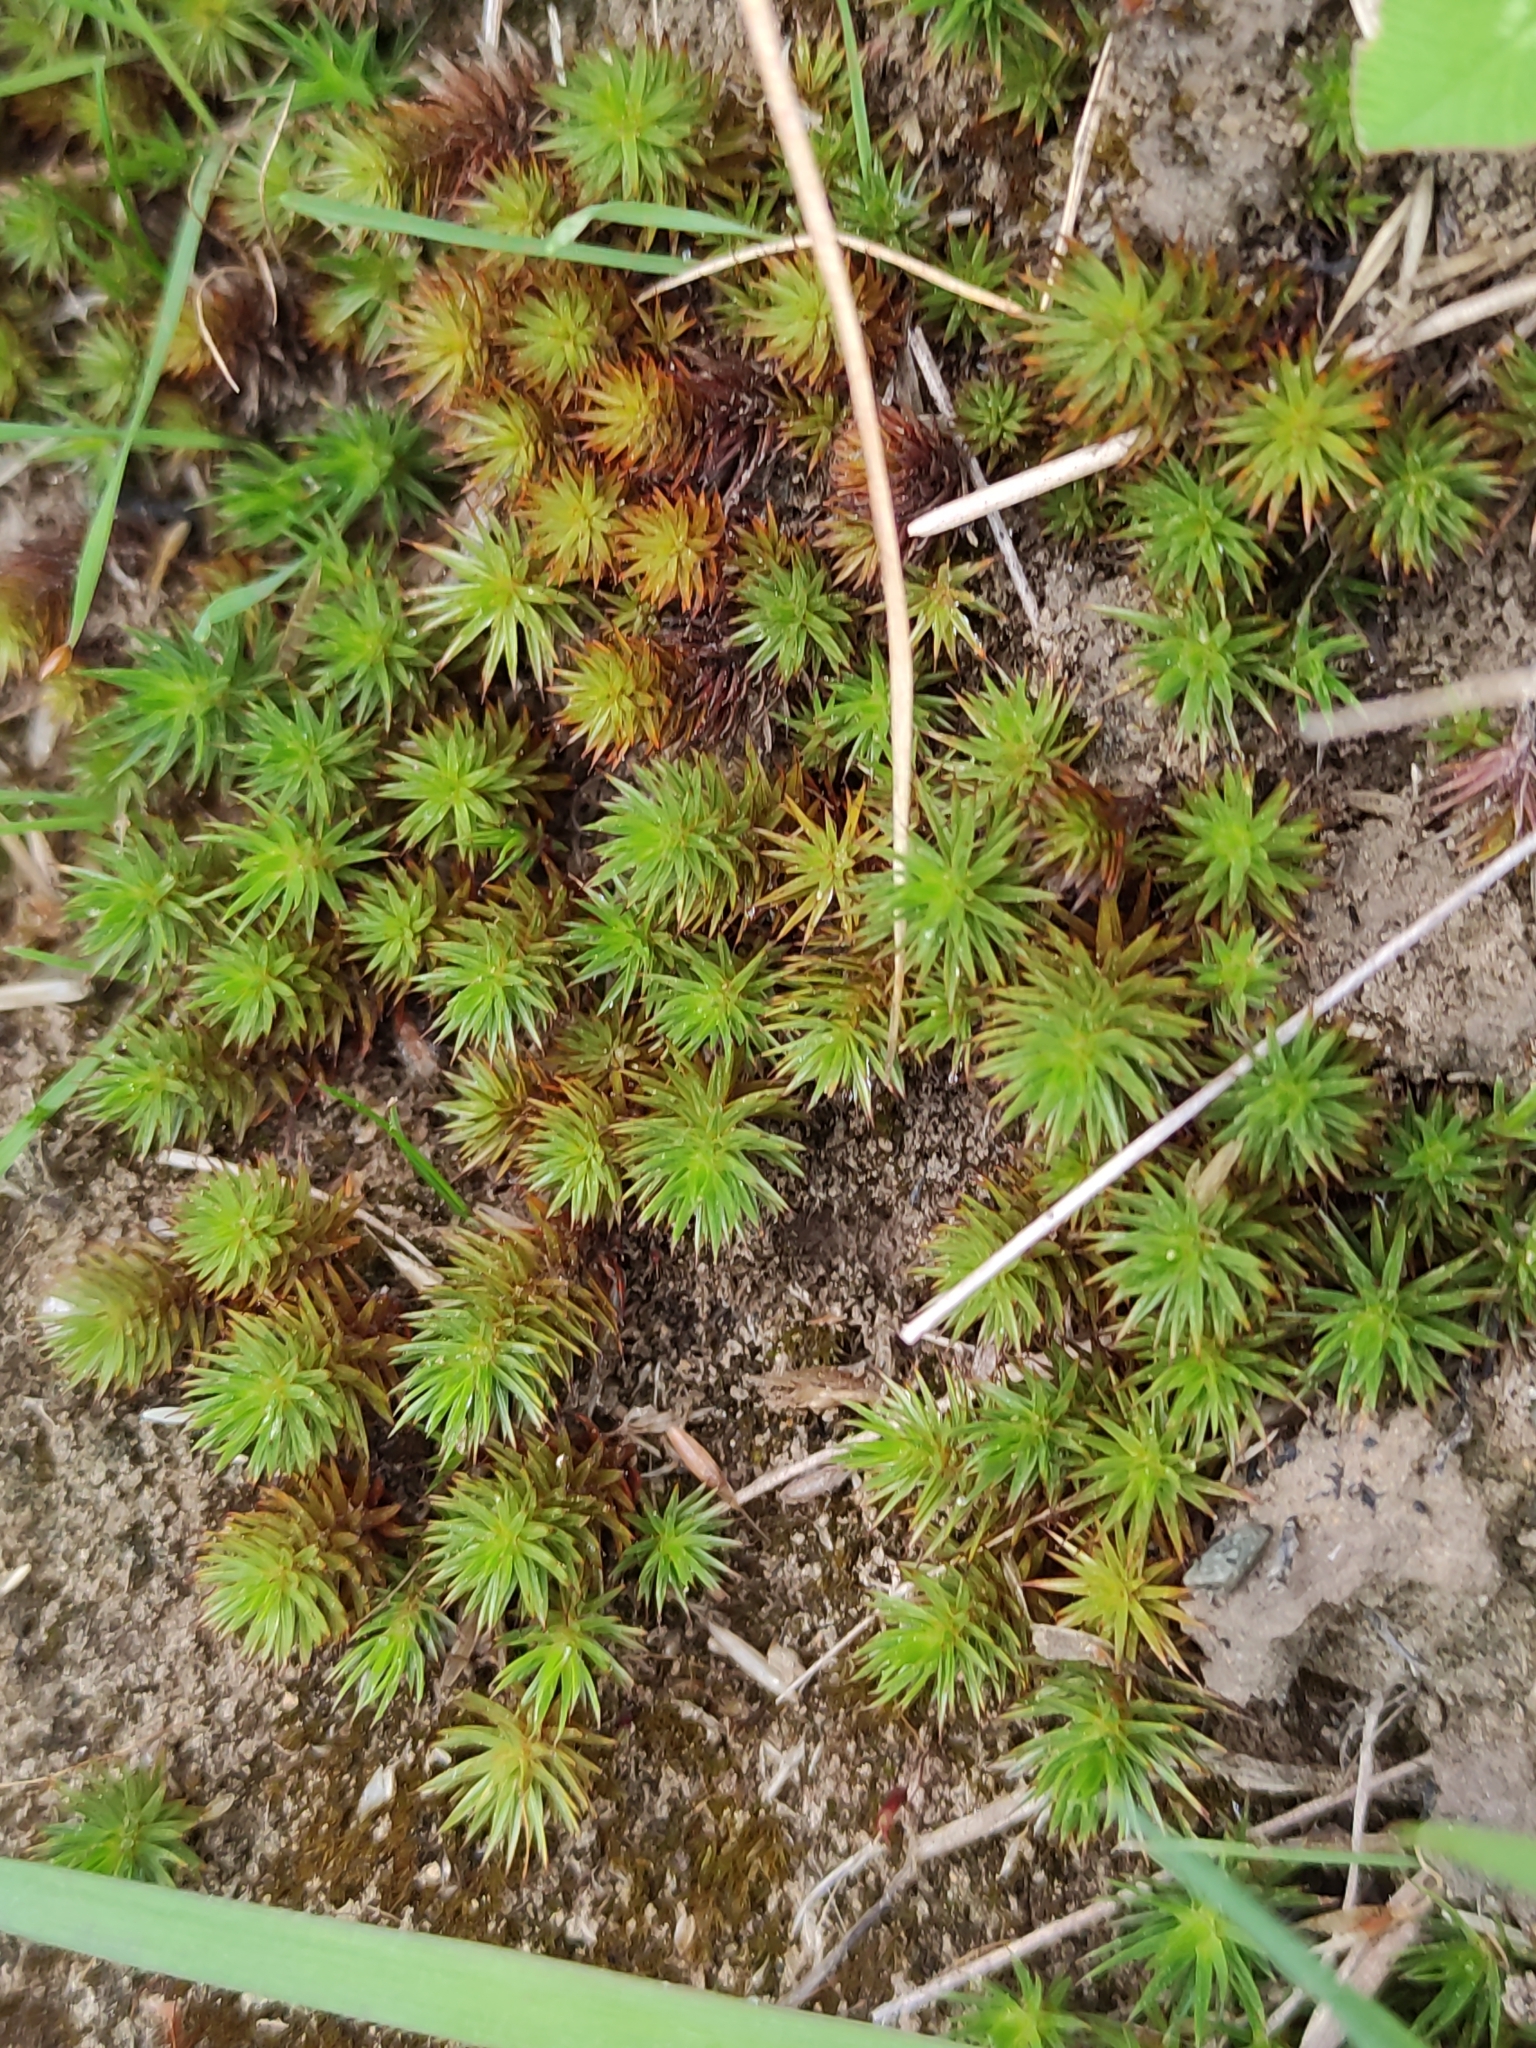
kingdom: Plantae
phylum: Bryophyta
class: Polytrichopsida
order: Polytrichales
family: Polytrichaceae
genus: Polytrichum
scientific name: Polytrichum juniperinum
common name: Juniper haircap moss
